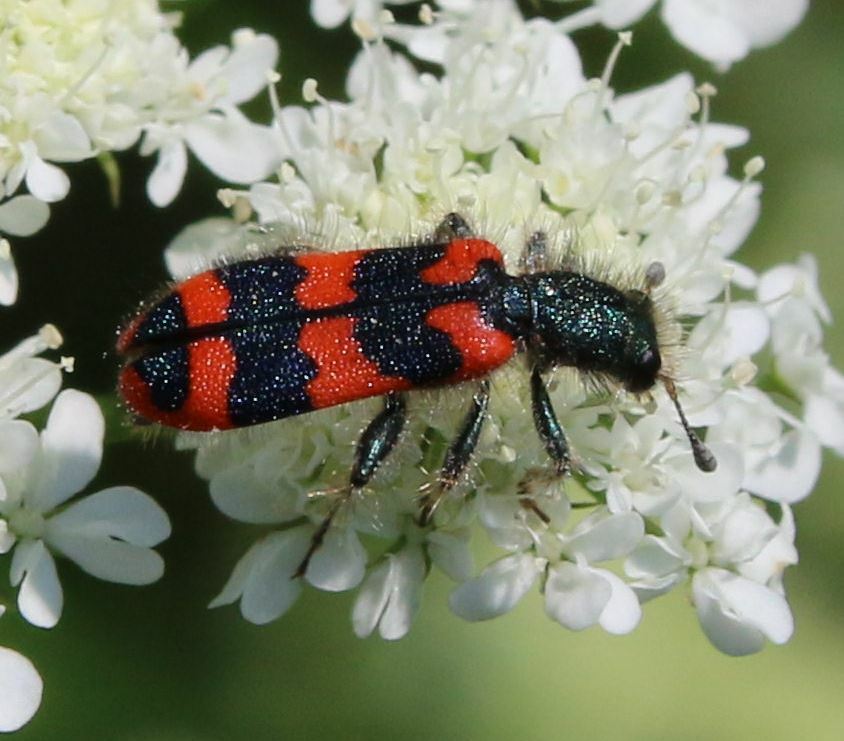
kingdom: Animalia
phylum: Arthropoda
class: Insecta
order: Coleoptera
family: Cleridae
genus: Trichodes
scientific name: Trichodes alvearius
